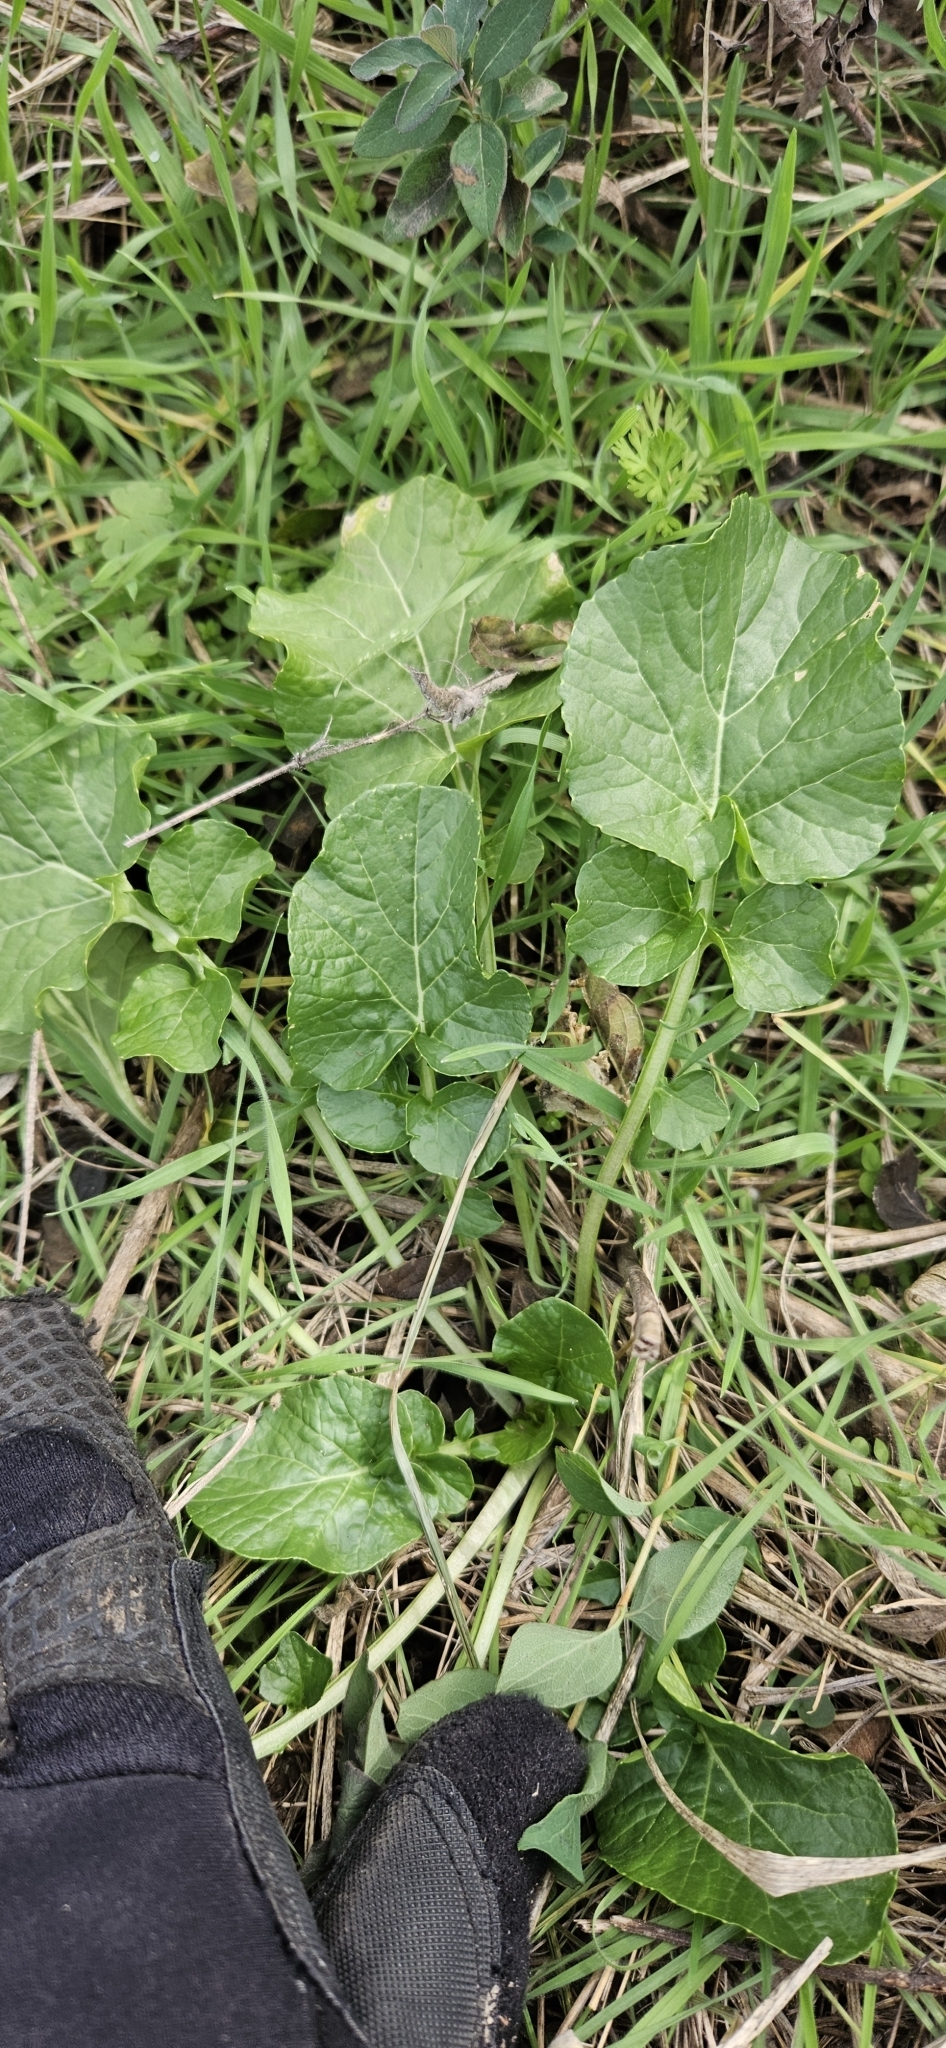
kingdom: Plantae
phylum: Tracheophyta
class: Magnoliopsida
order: Brassicales
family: Brassicaceae
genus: Barbarea
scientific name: Barbarea vulgaris
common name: Cressy-greens
